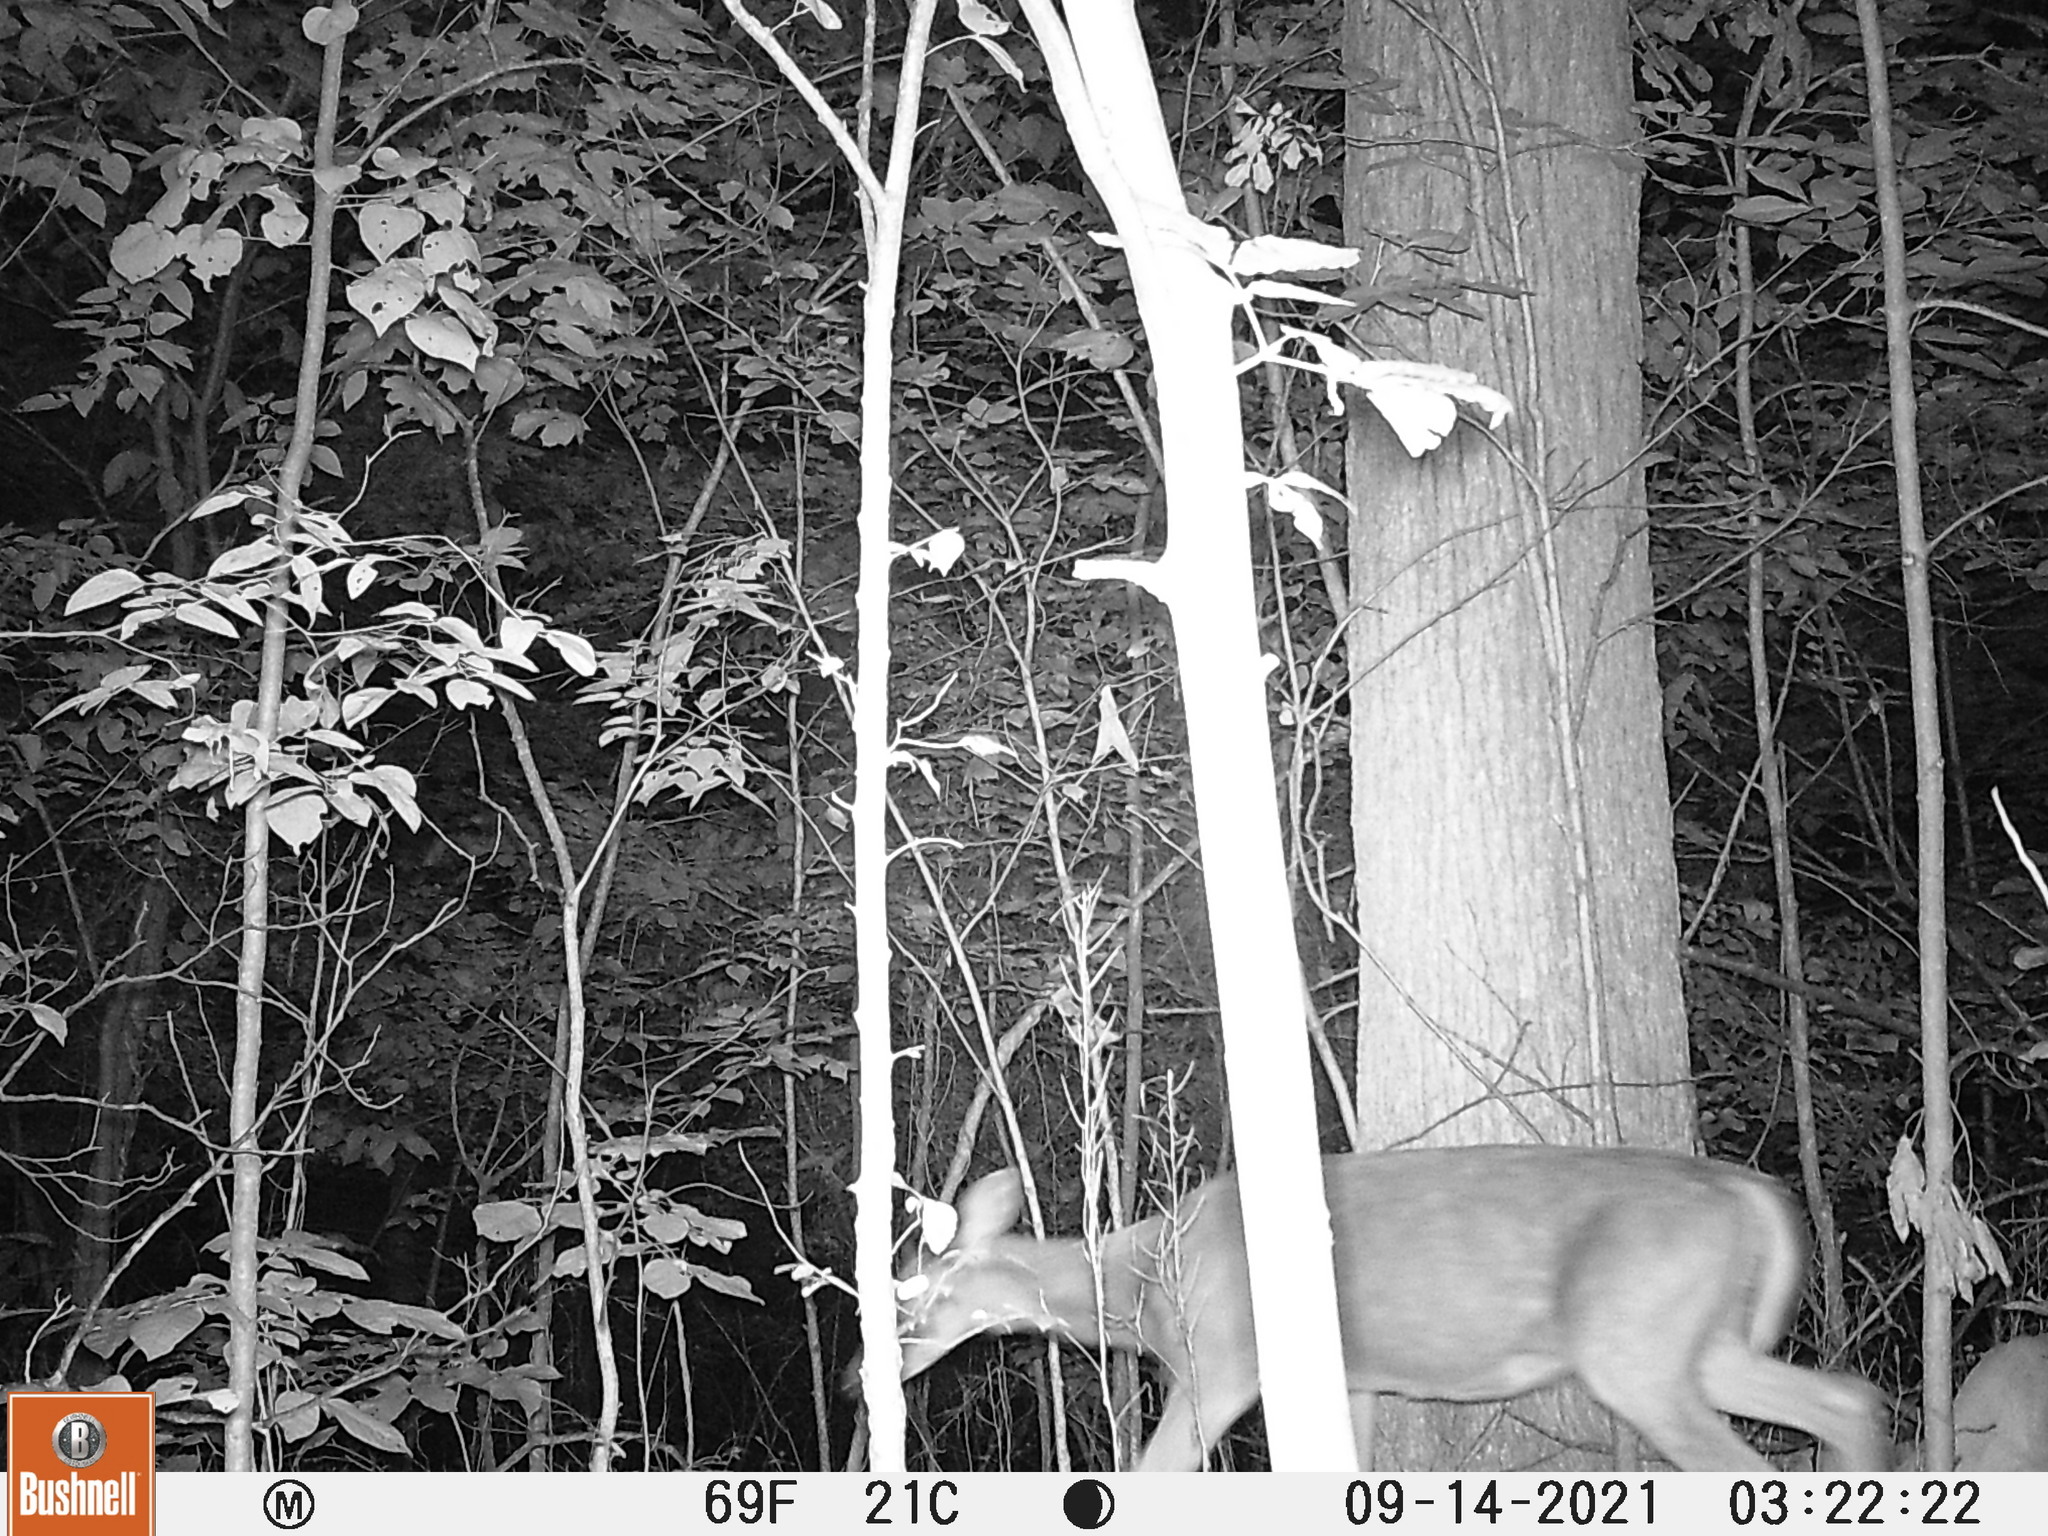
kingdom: Animalia
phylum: Chordata
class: Mammalia
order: Artiodactyla
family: Cervidae
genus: Odocoileus
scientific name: Odocoileus virginianus
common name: White-tailed deer
